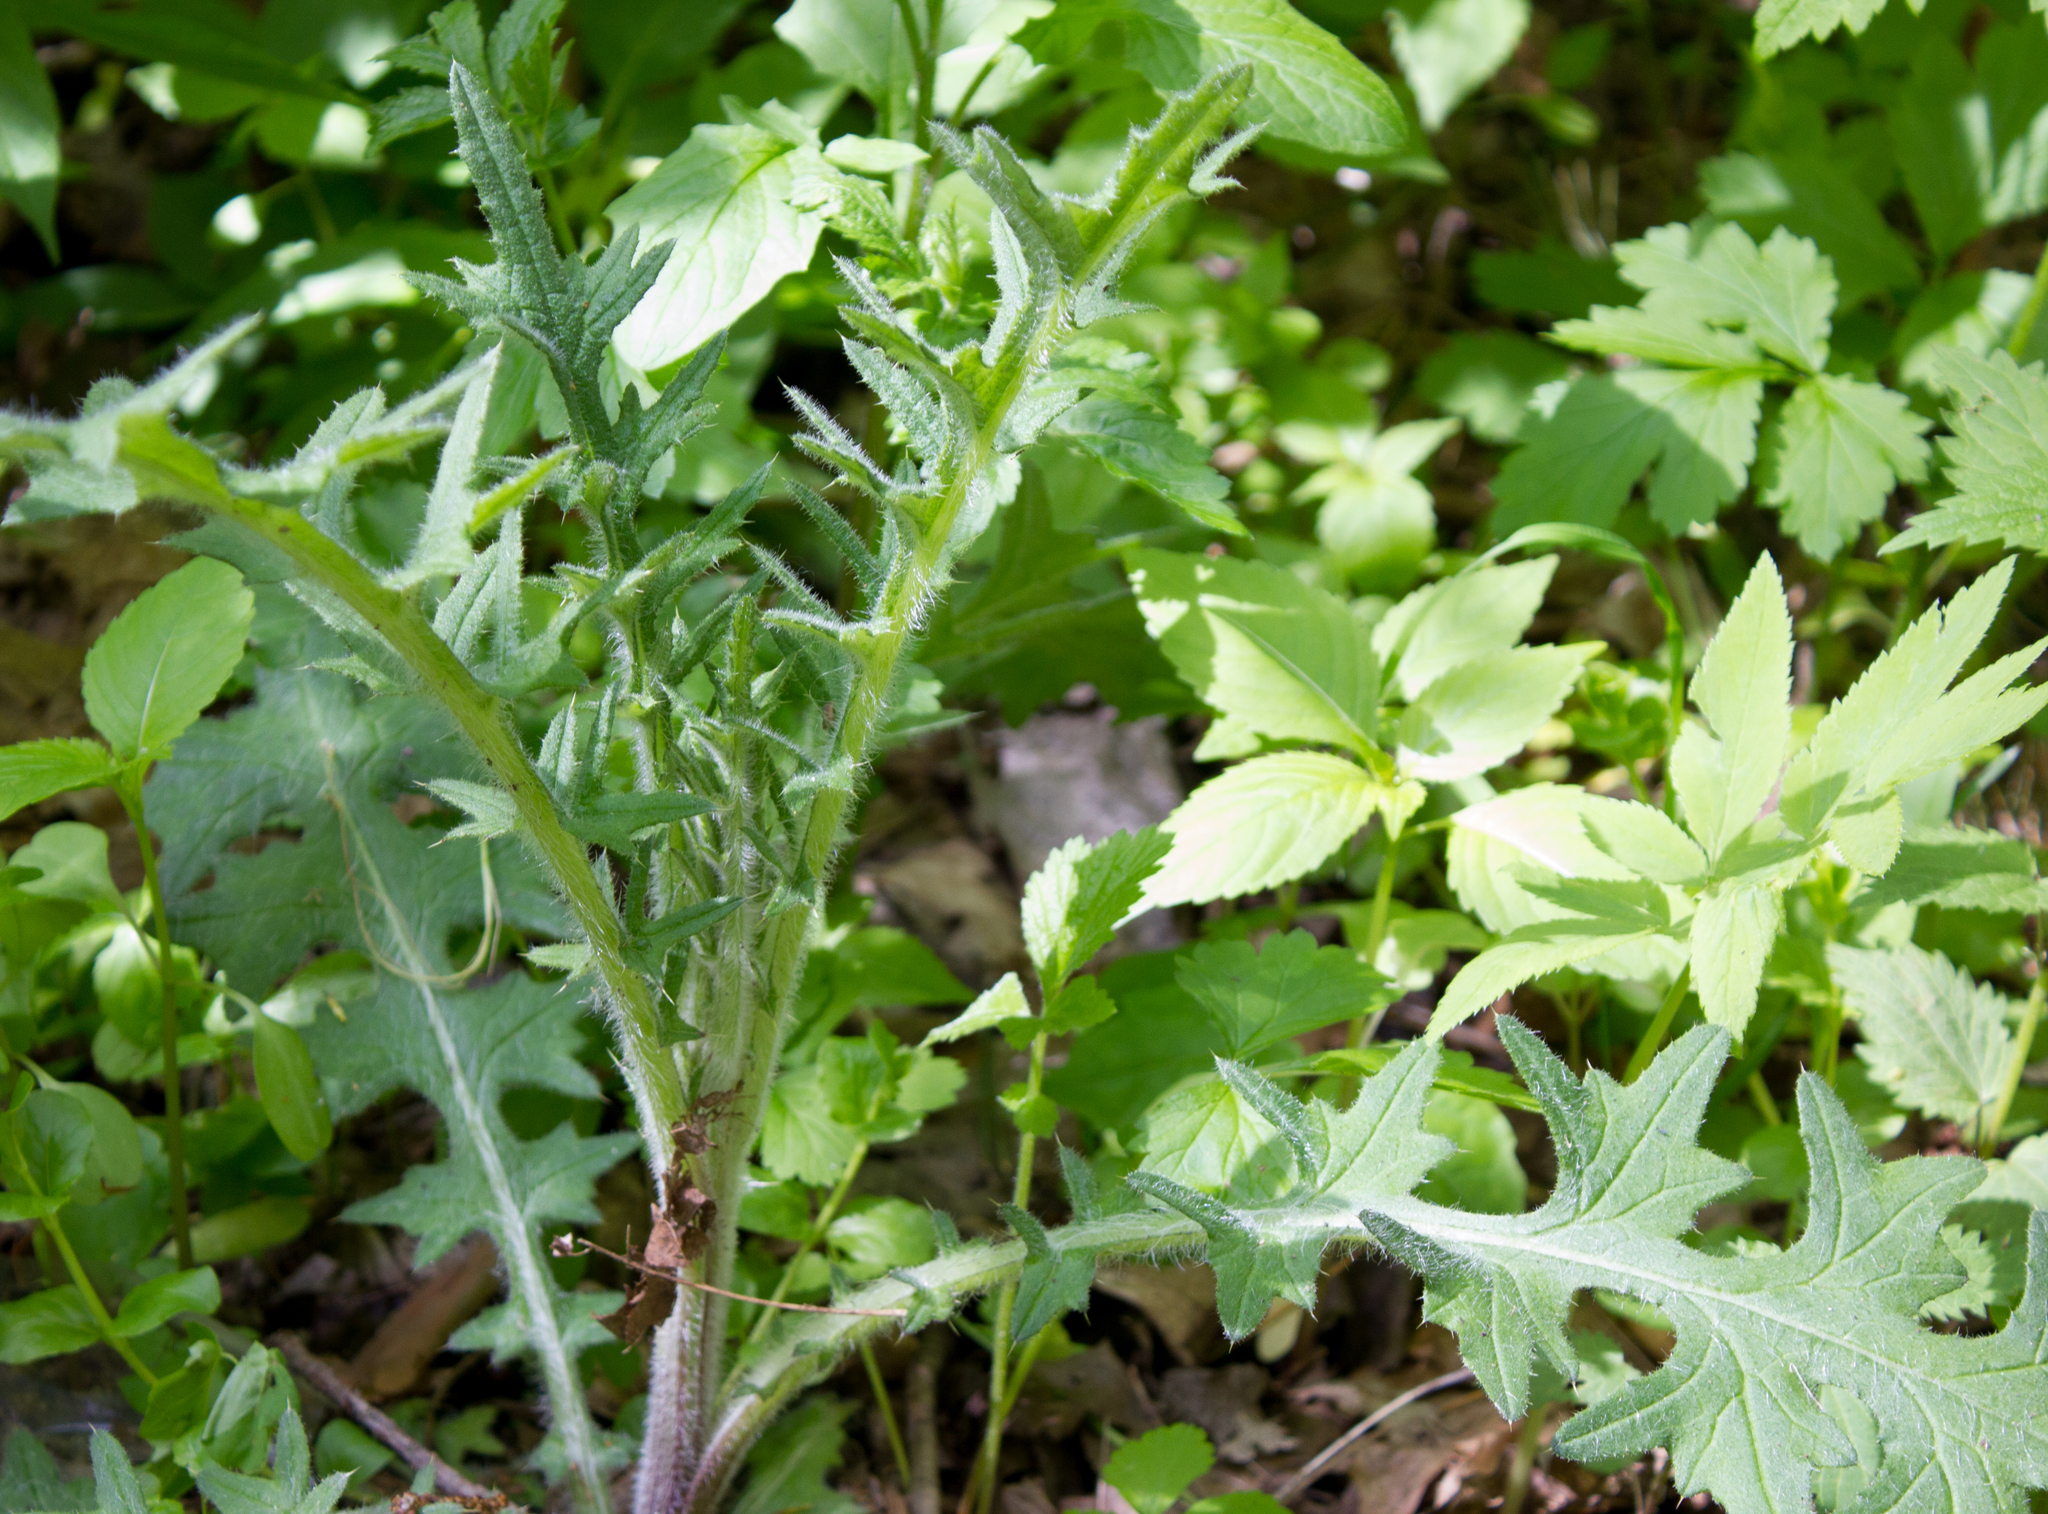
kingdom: Plantae
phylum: Tracheophyta
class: Magnoliopsida
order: Asterales
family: Asteraceae
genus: Cirsium
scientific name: Cirsium vulgare
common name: Bull thistle
